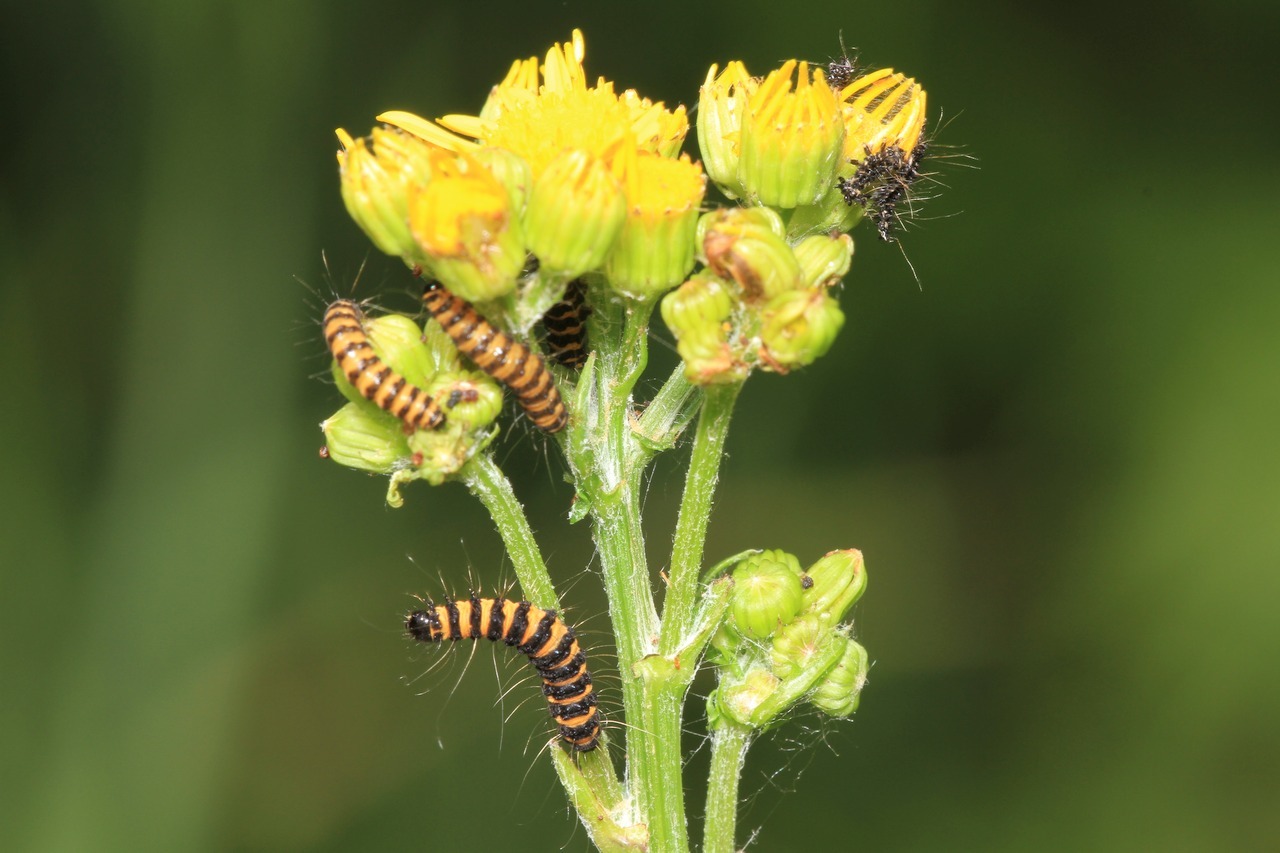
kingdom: Animalia
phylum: Arthropoda
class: Insecta
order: Lepidoptera
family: Erebidae
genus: Tyria
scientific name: Tyria jacobaeae
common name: Cinnabar
